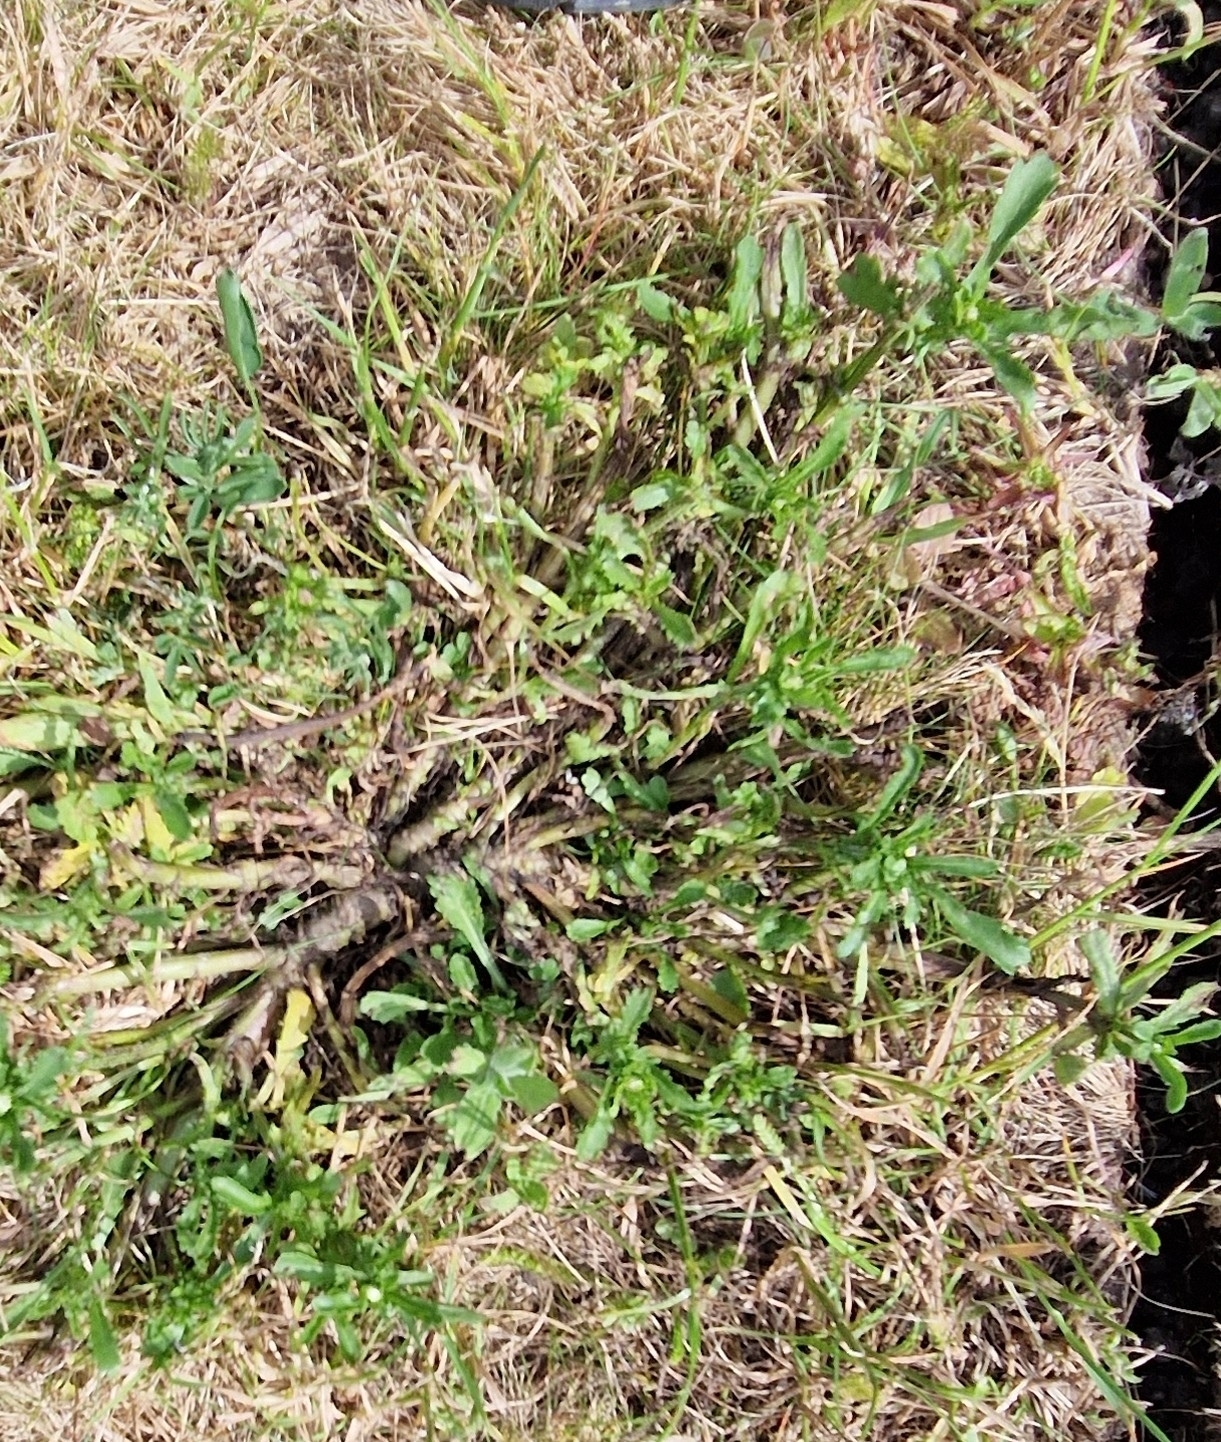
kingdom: Plantae
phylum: Tracheophyta
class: Magnoliopsida
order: Asterales
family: Asteraceae
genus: Leucanthemum
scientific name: Leucanthemum vulgare
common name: Oxeye daisy
